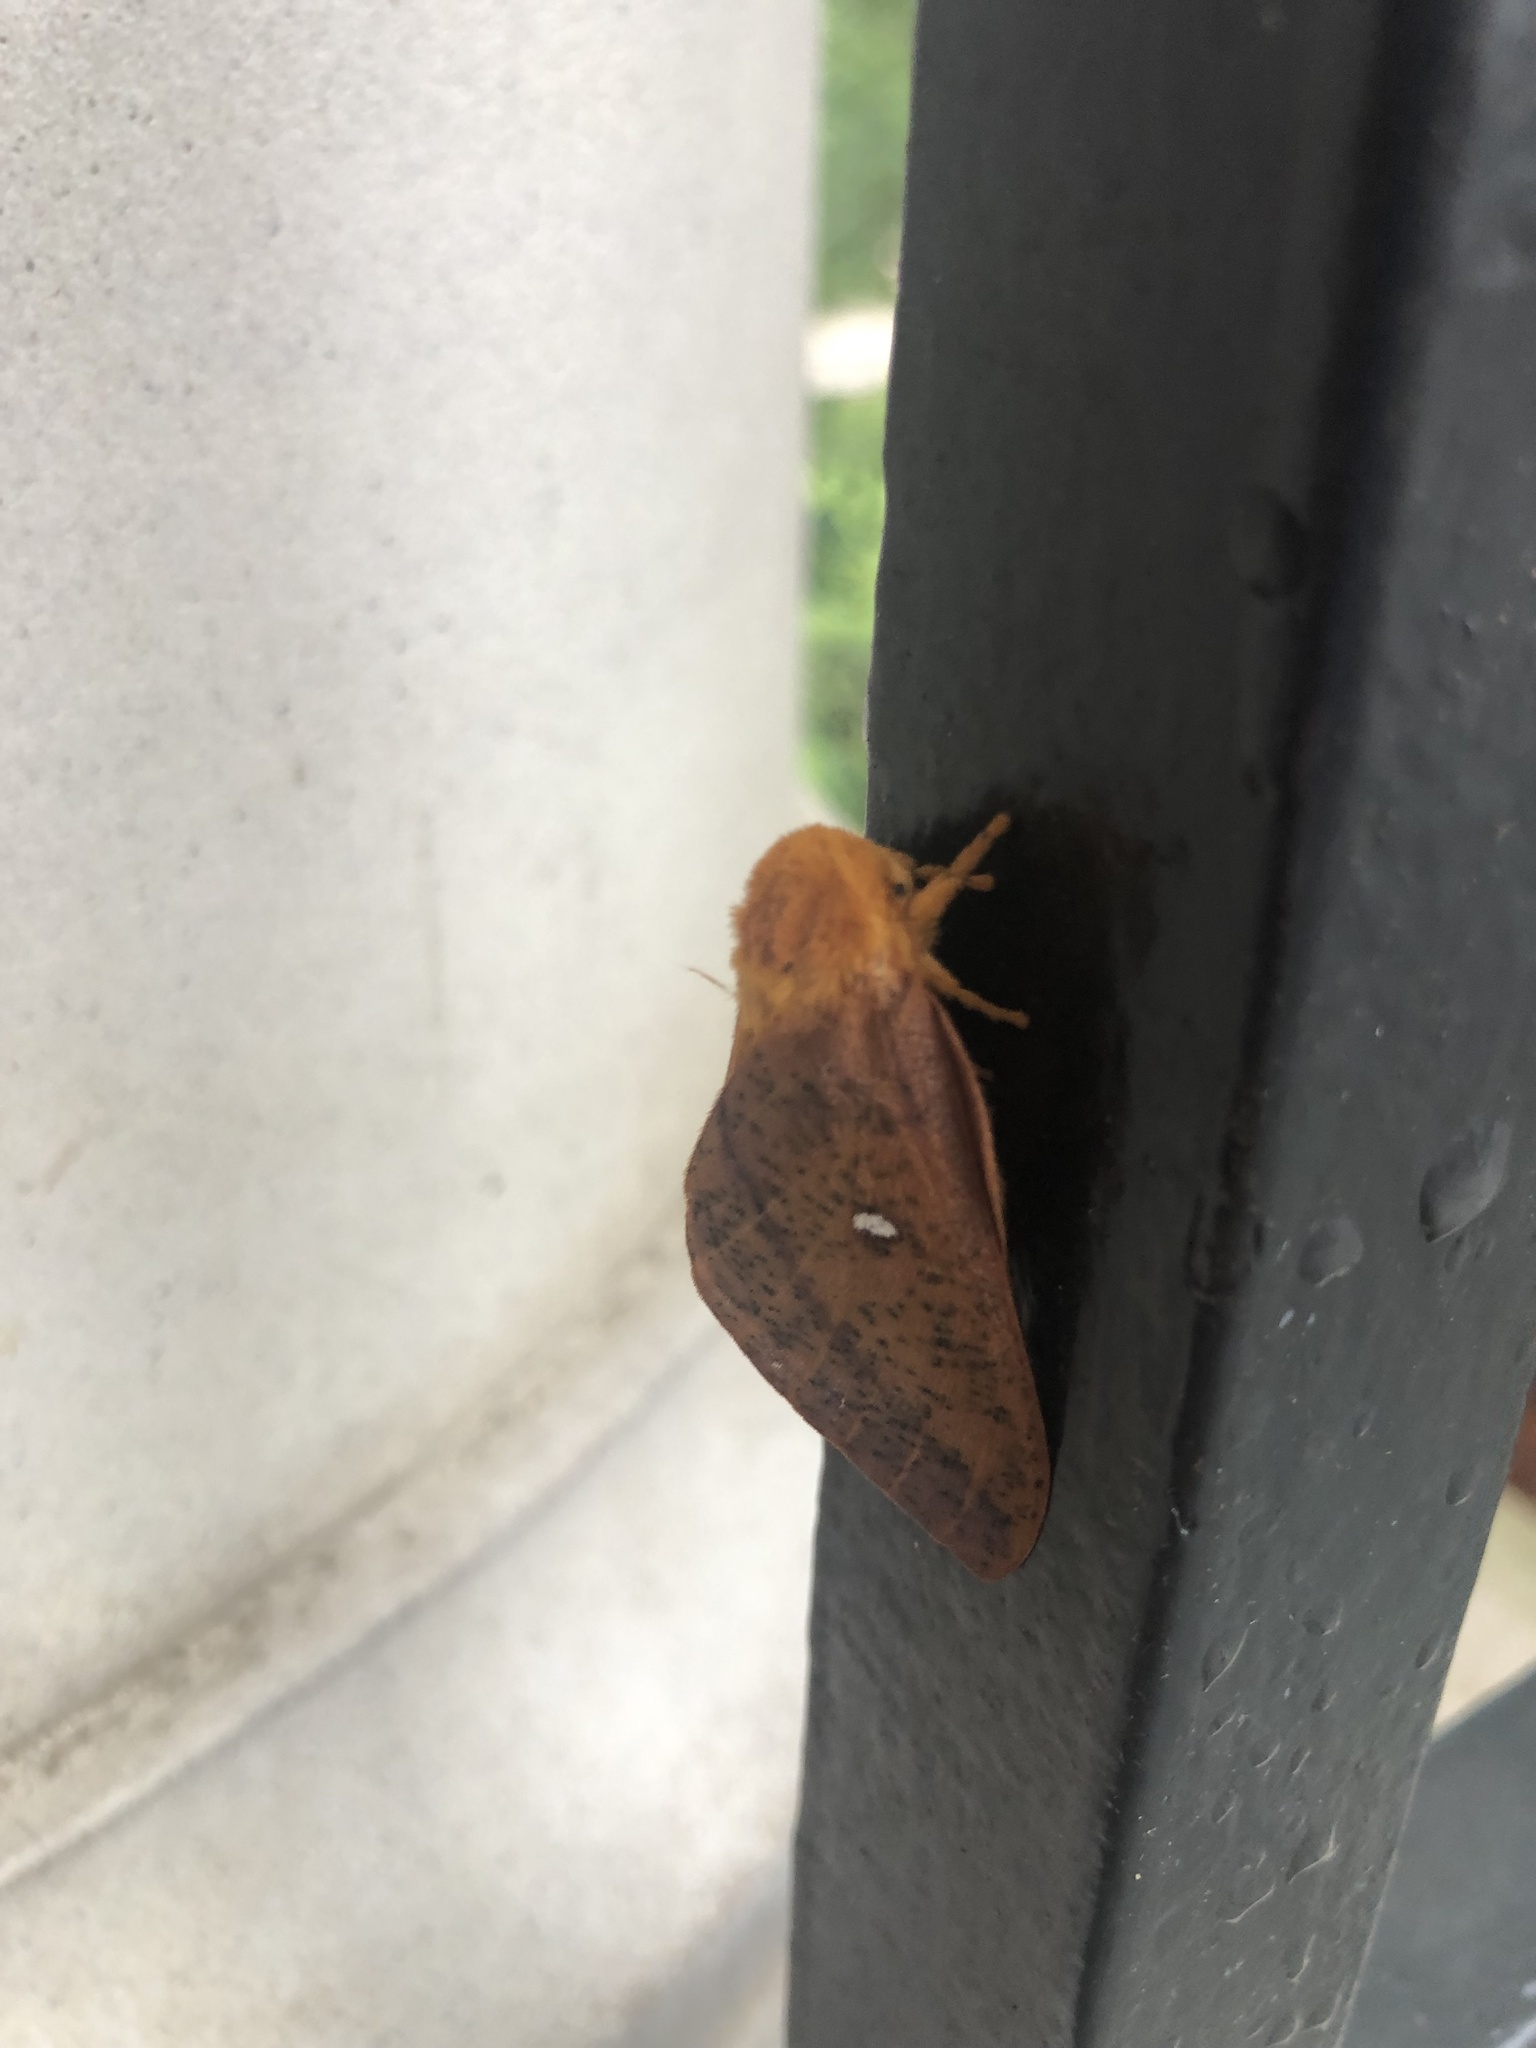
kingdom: Animalia
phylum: Arthropoda
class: Insecta
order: Lepidoptera
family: Saturniidae
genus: Anisota
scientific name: Anisota peigleri
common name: Peigler's oakworm moth
